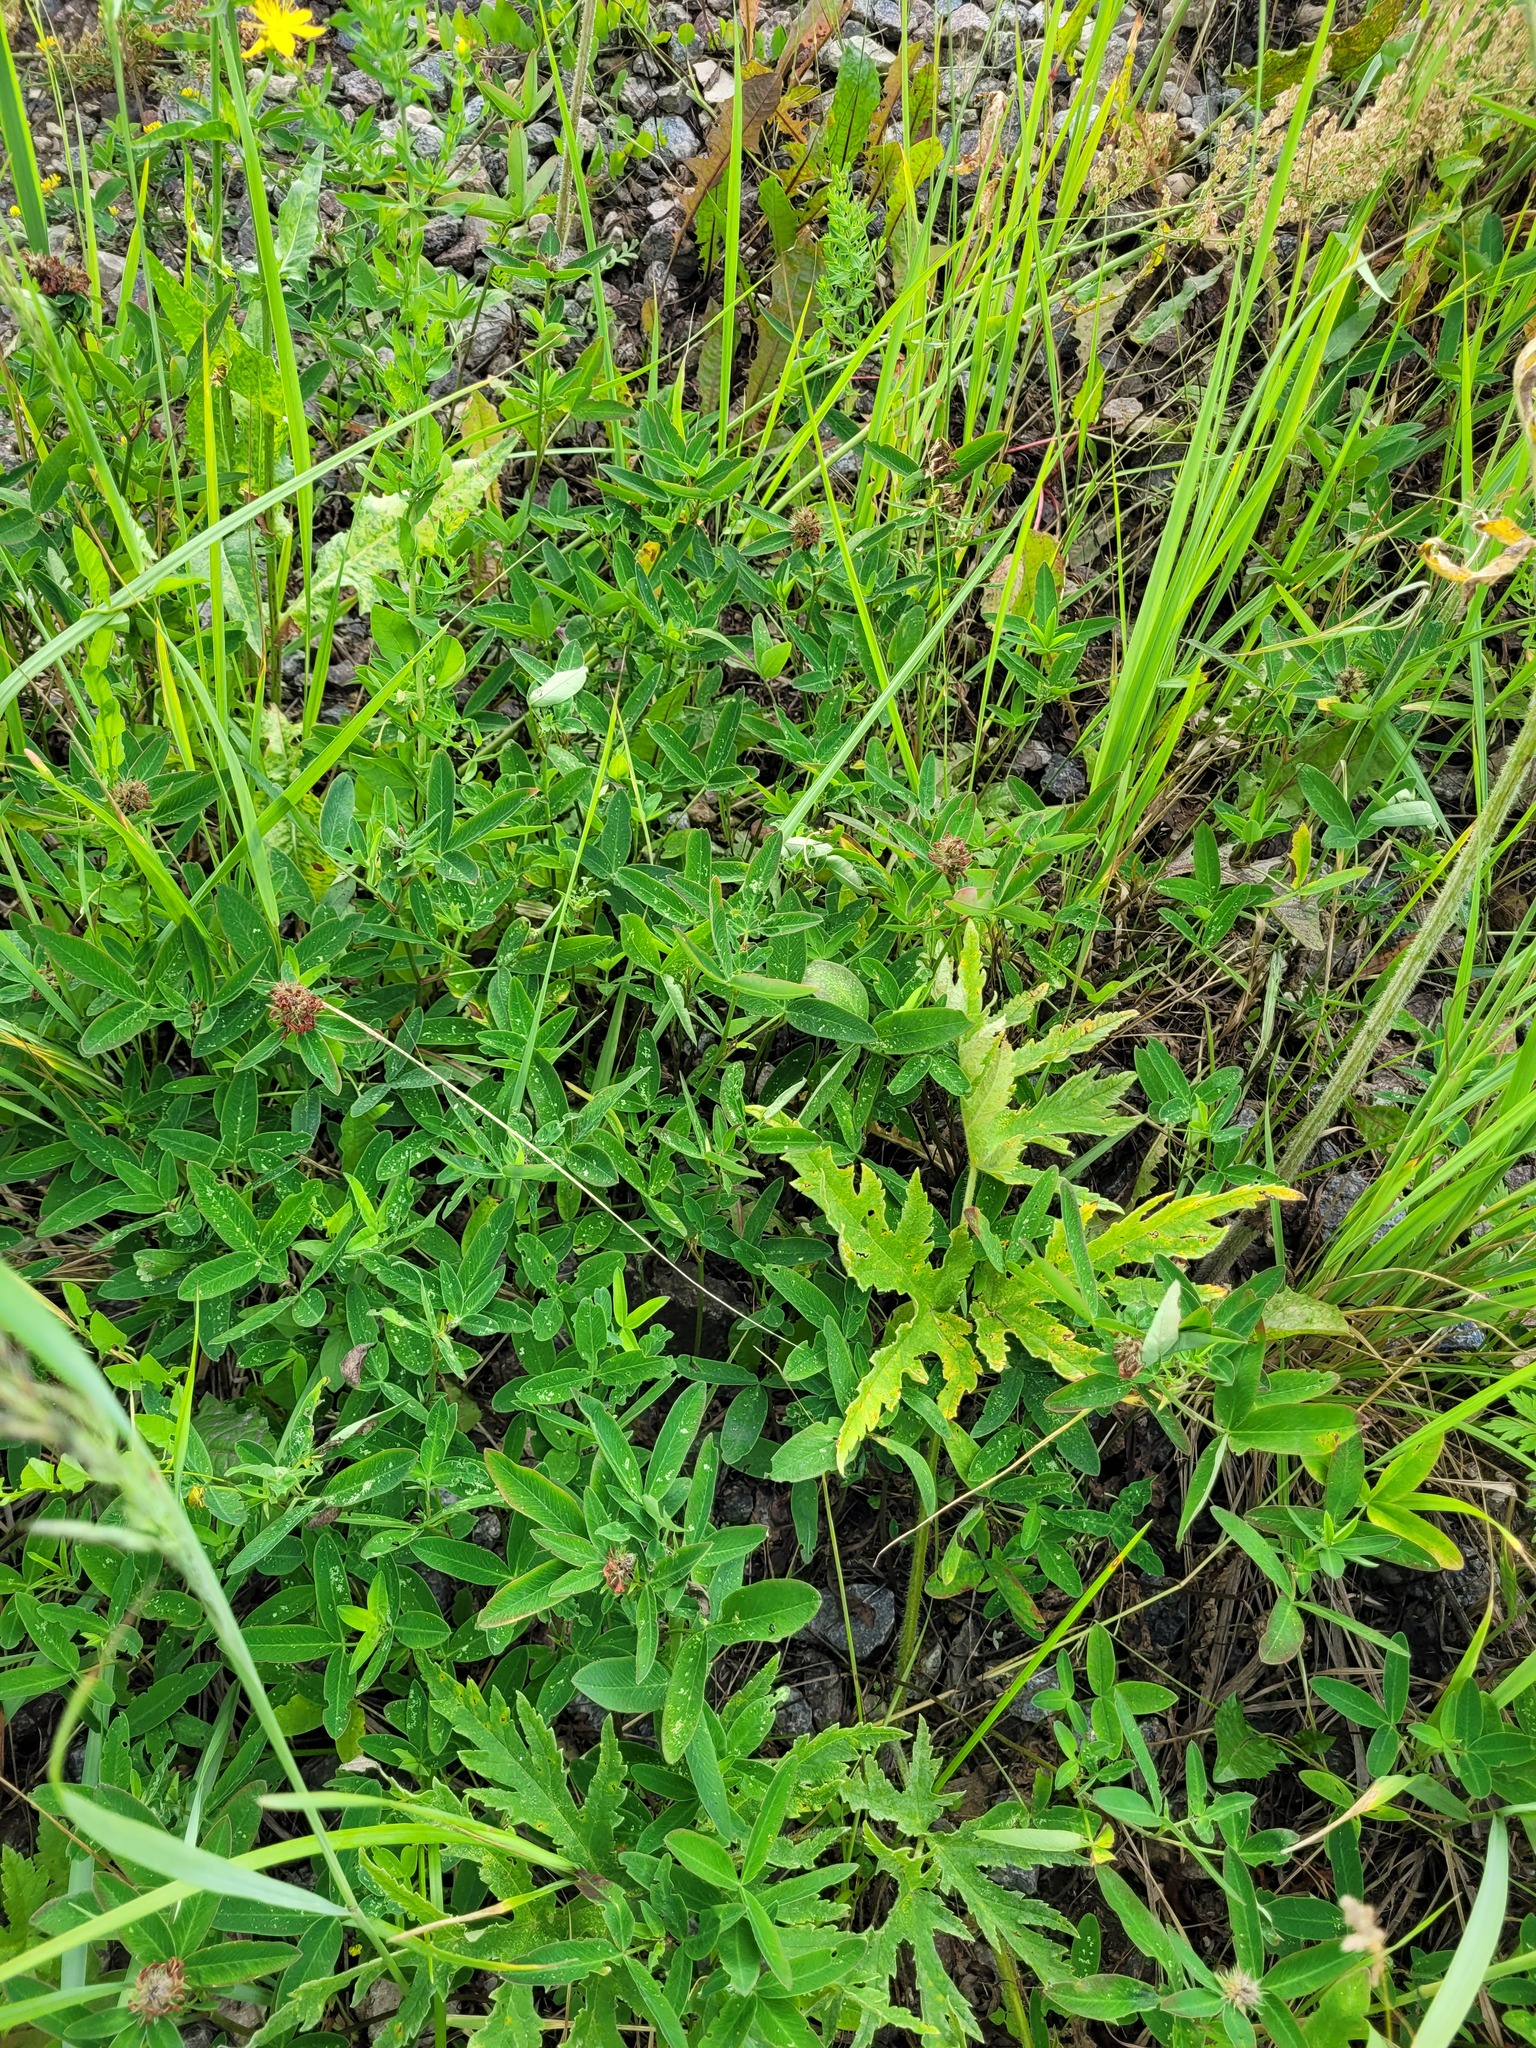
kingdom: Plantae
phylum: Tracheophyta
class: Magnoliopsida
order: Fabales
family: Fabaceae
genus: Trifolium
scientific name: Trifolium medium
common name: Zigzag clover
